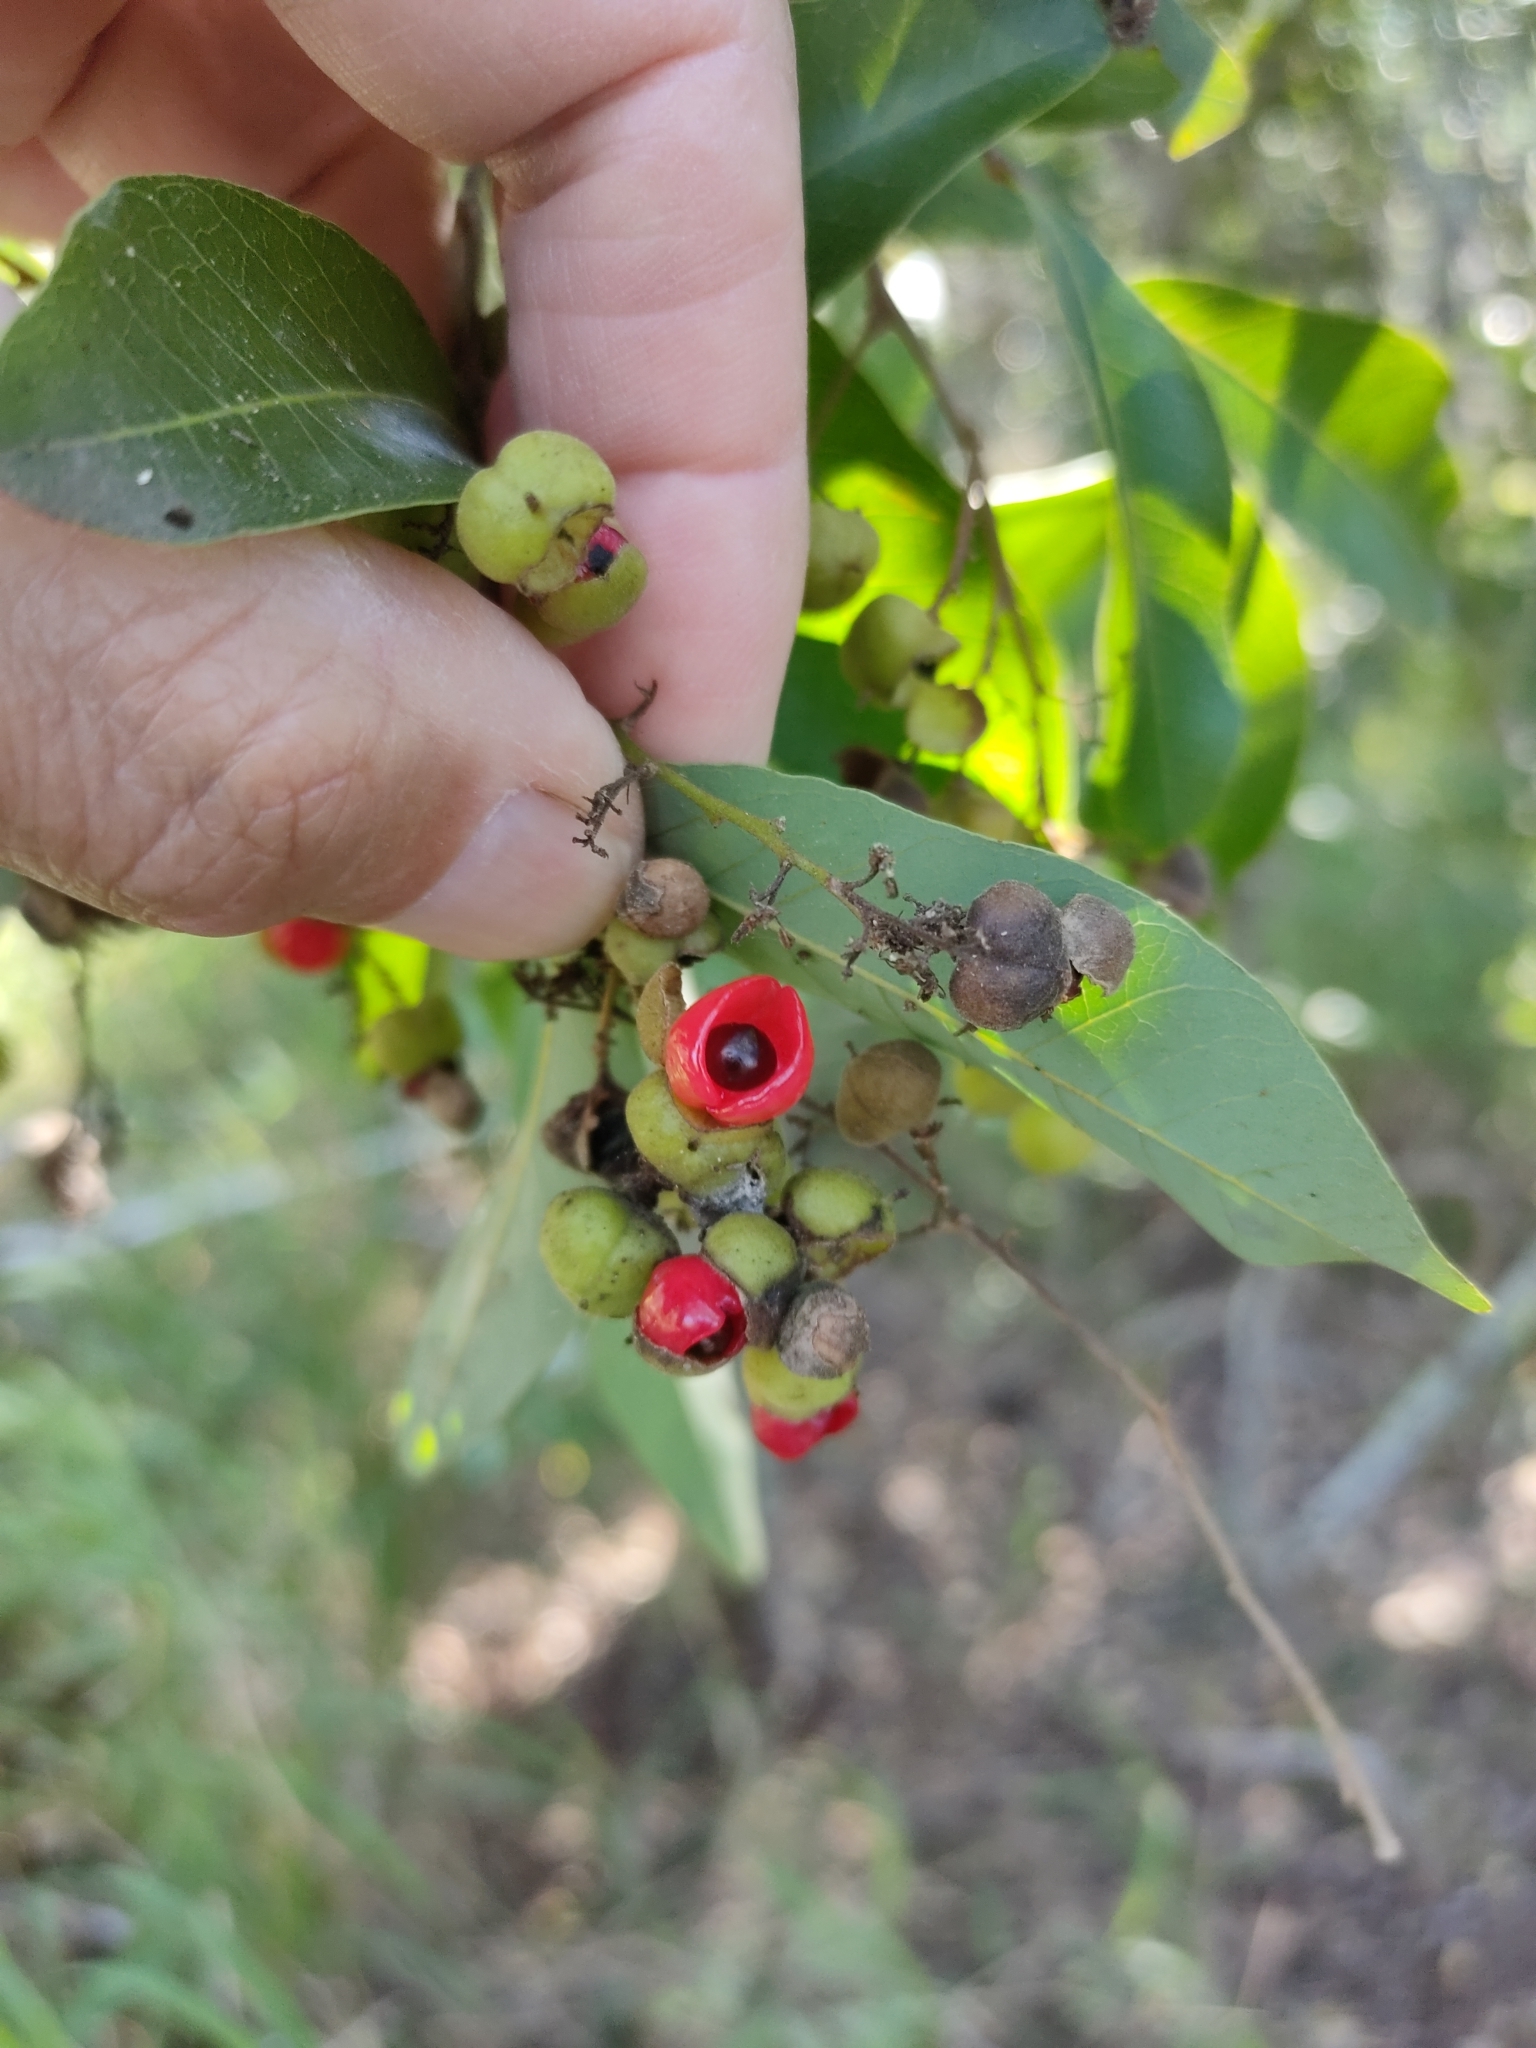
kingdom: Plantae
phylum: Tracheophyta
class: Magnoliopsida
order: Sapindales
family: Sapindaceae
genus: Alectryon
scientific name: Alectryon connatus
